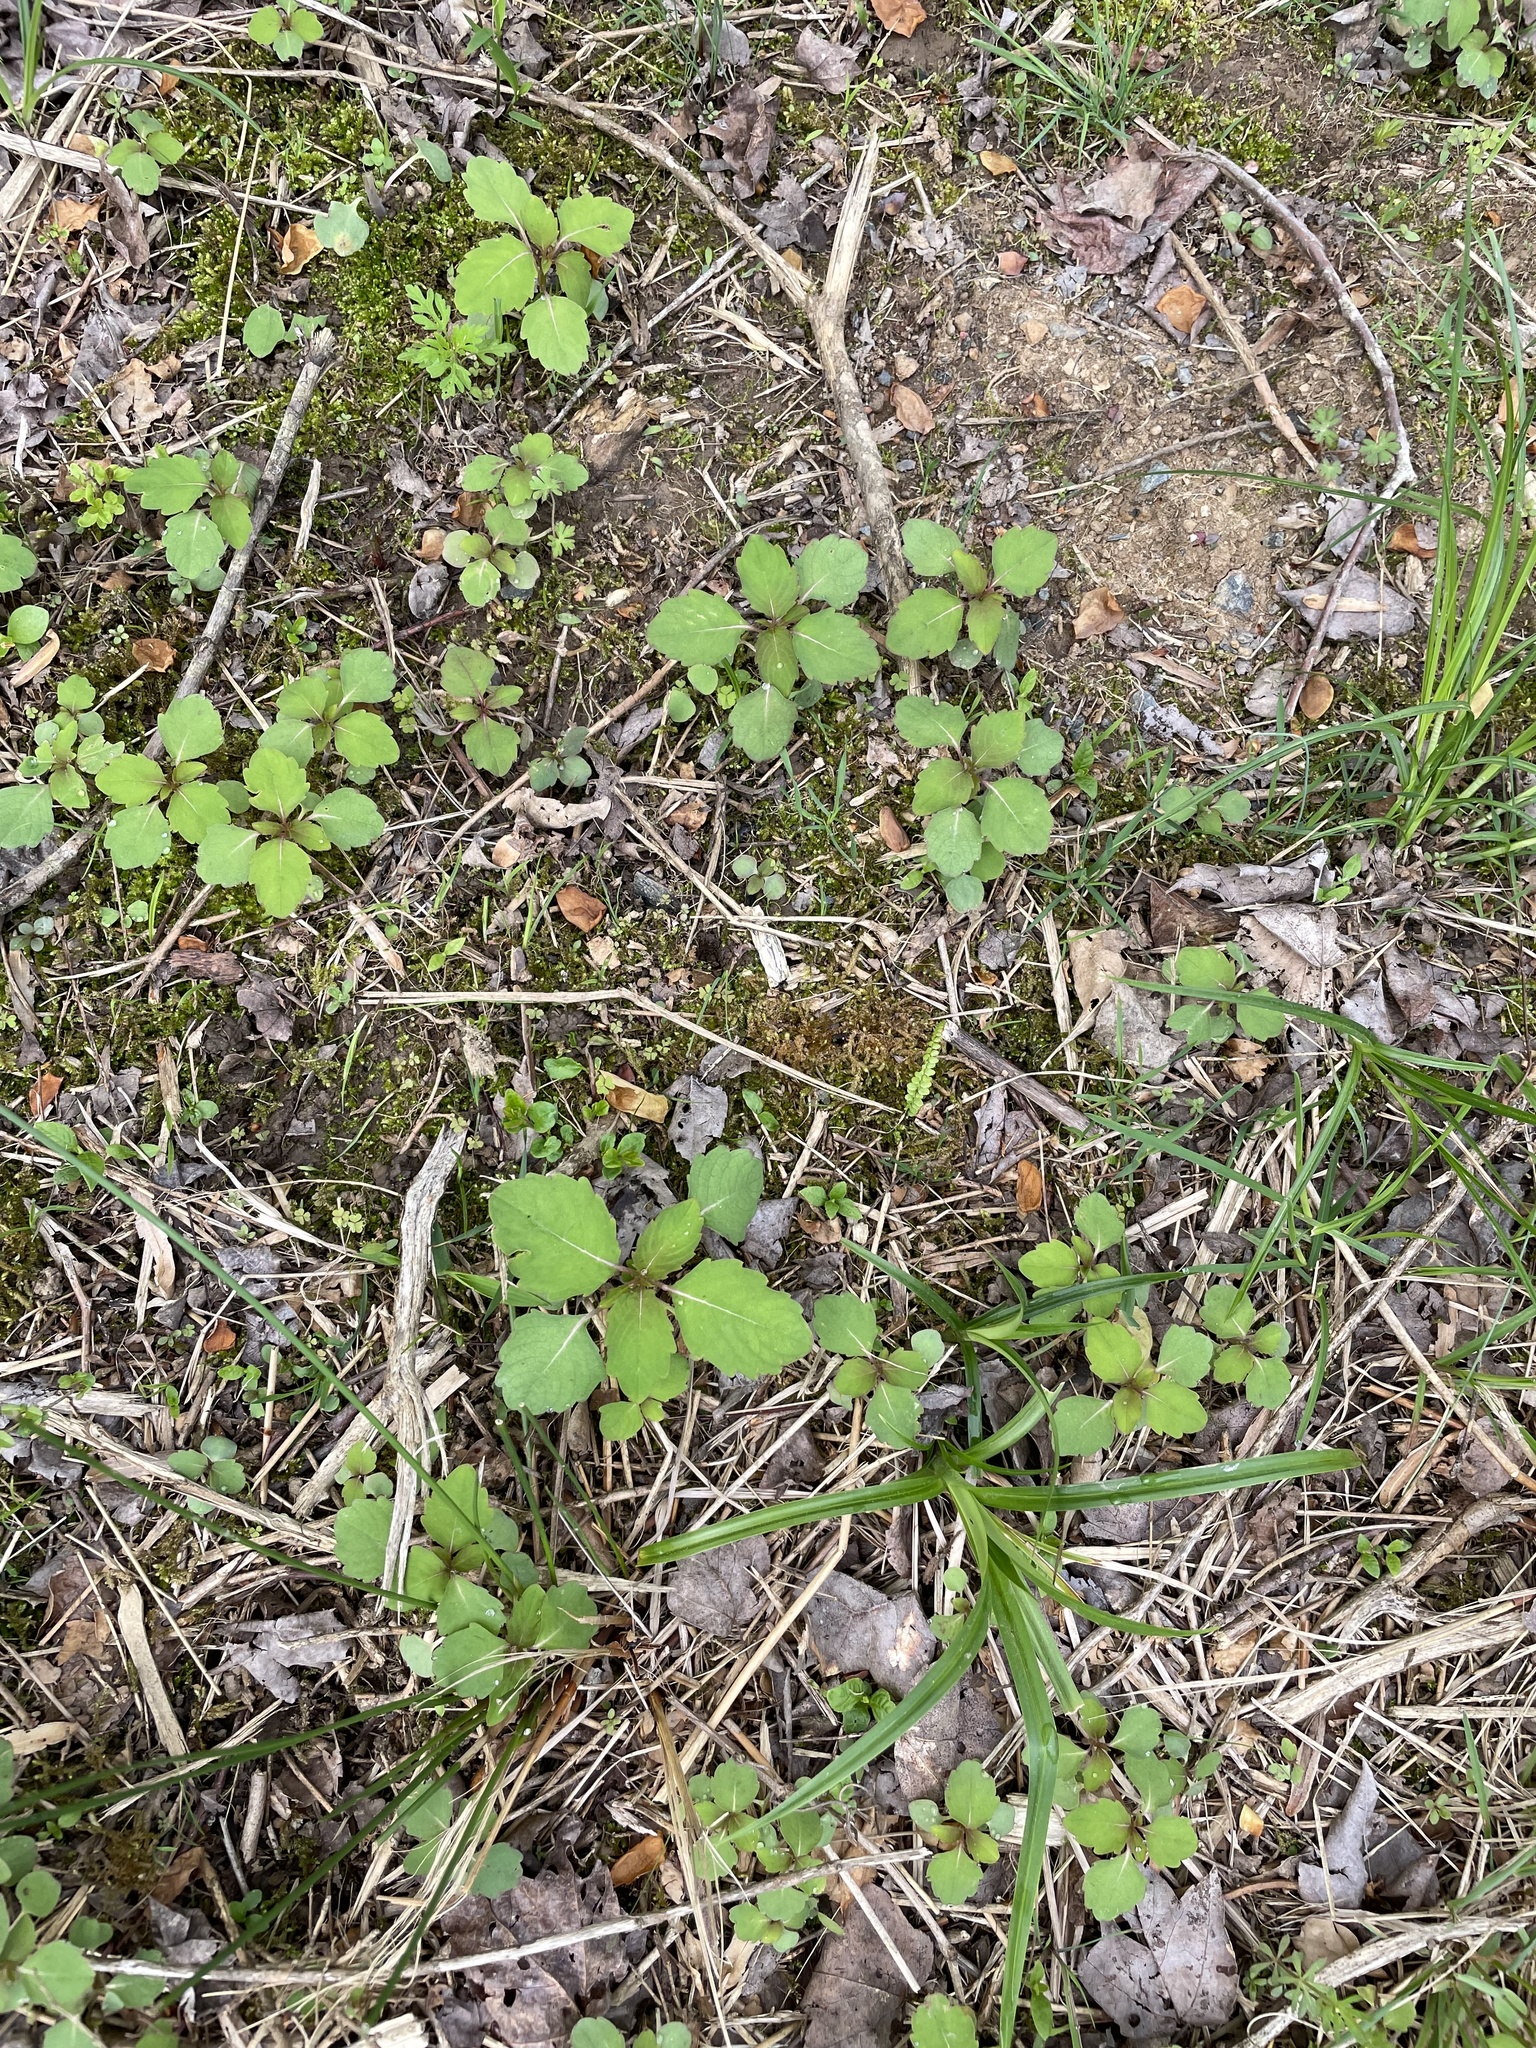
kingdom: Plantae
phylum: Tracheophyta
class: Magnoliopsida
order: Ericales
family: Balsaminaceae
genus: Impatiens
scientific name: Impatiens capensis
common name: Orange balsam
